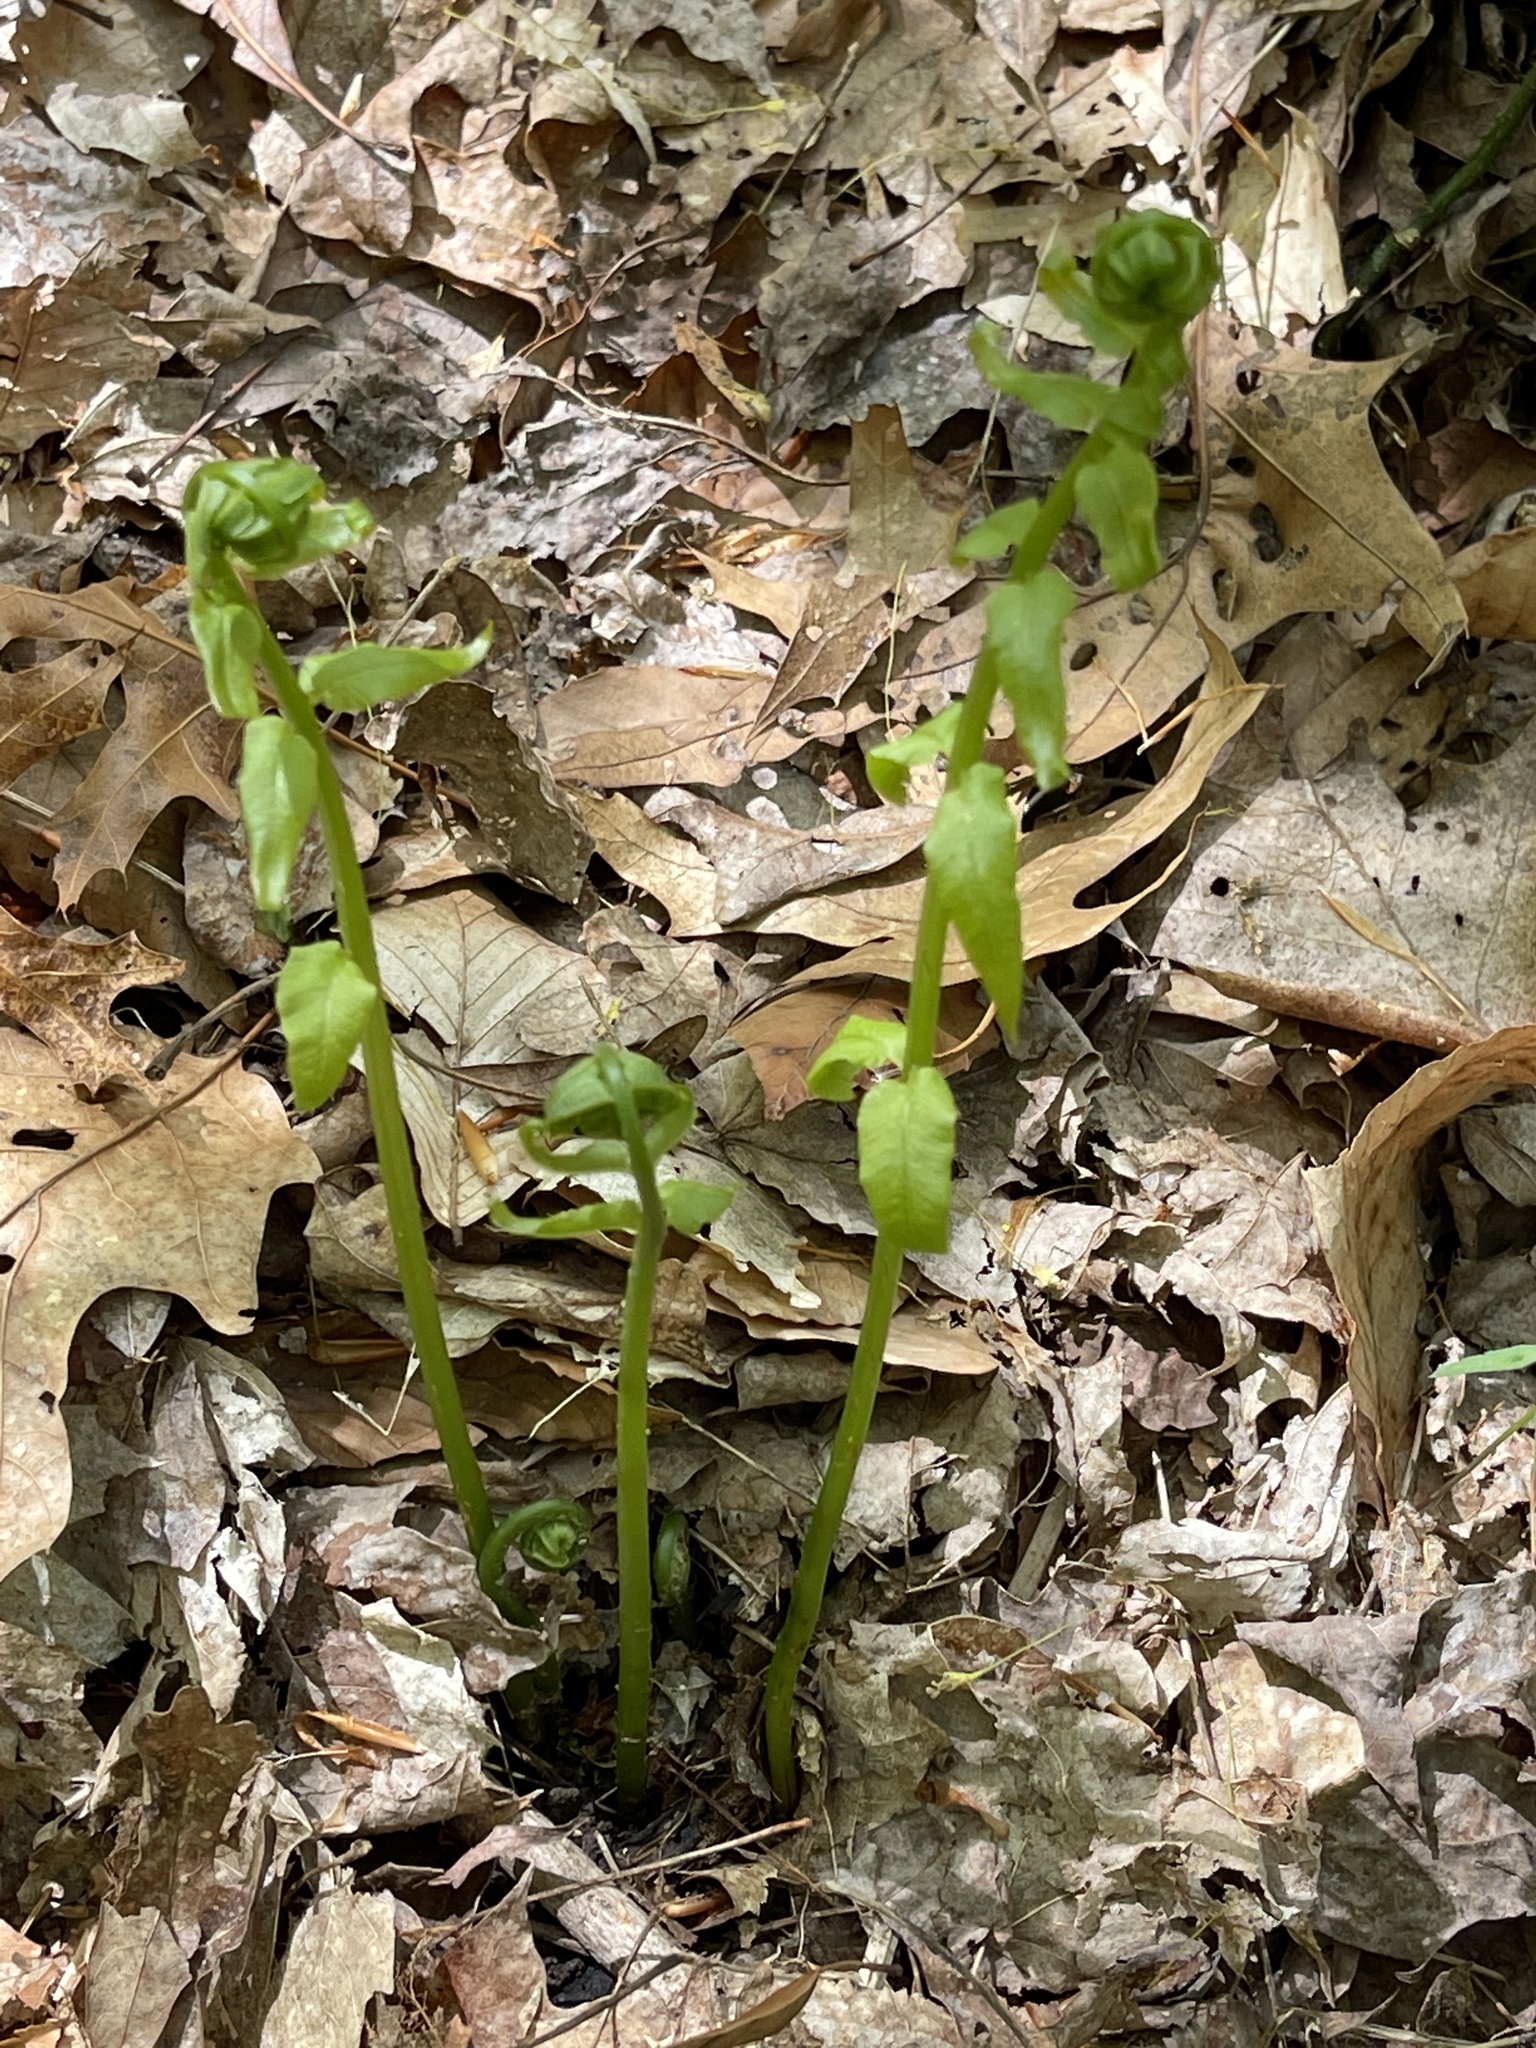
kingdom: Plantae
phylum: Tracheophyta
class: Polypodiopsida
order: Polypodiales
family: Diplaziopsidaceae
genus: Homalosorus
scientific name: Homalosorus pycnocarpos
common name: Glade fern
